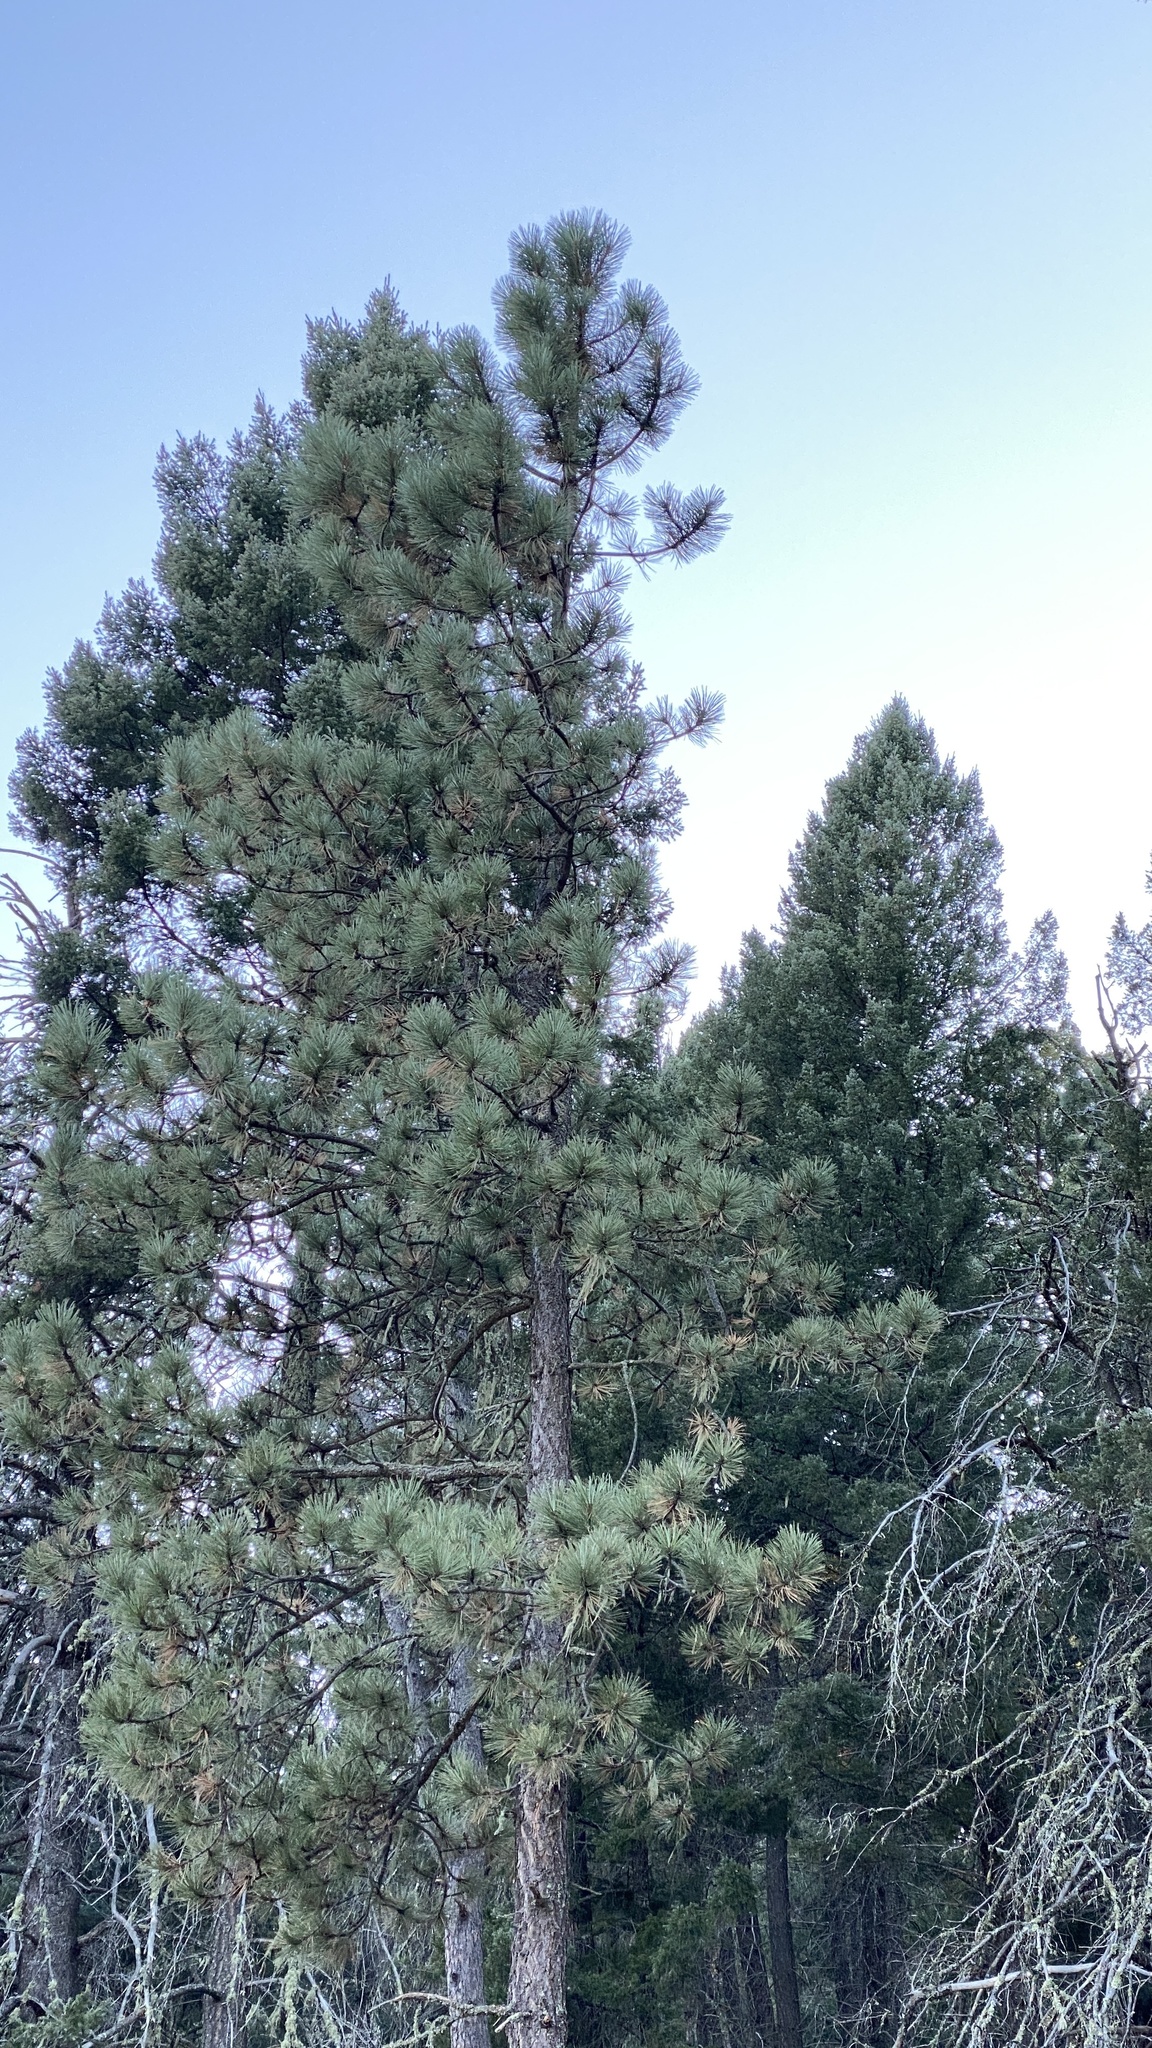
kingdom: Plantae
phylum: Tracheophyta
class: Pinopsida
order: Pinales
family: Pinaceae
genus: Pinus
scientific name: Pinus ponderosa
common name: Western yellow-pine
